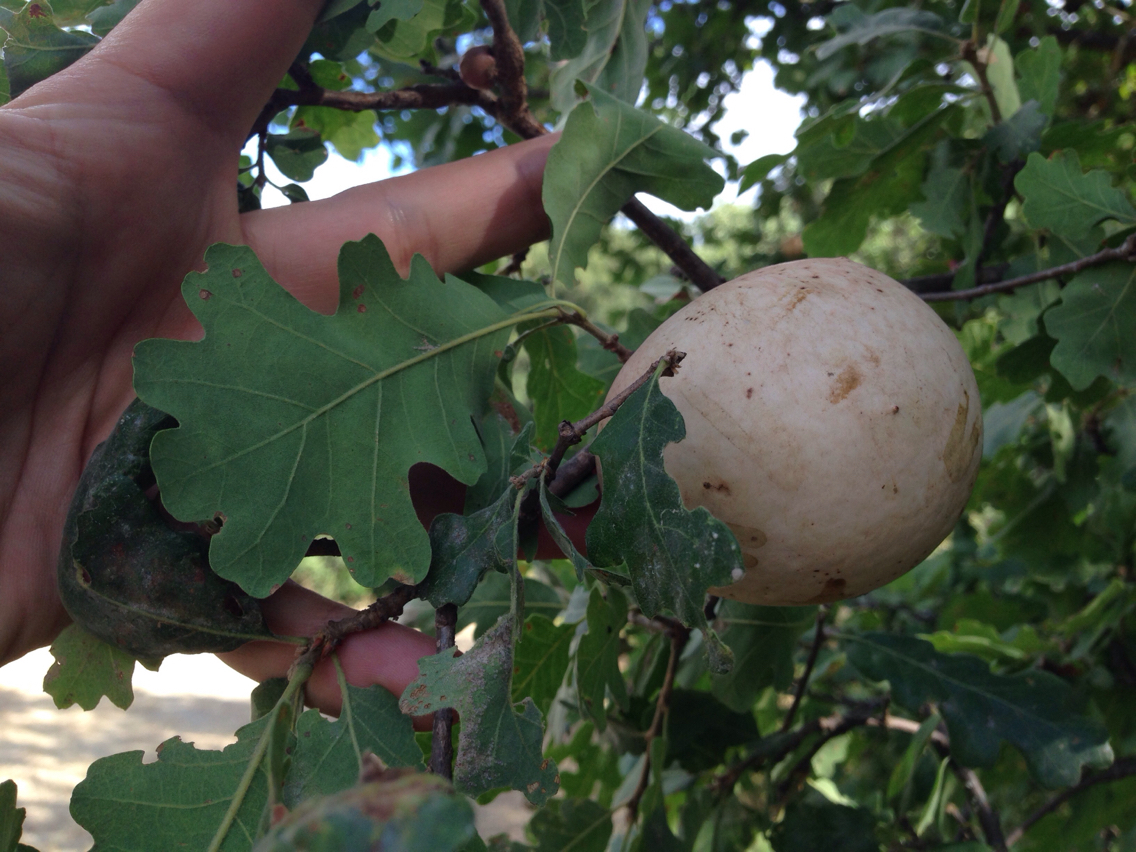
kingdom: Animalia
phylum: Arthropoda
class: Insecta
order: Hymenoptera
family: Cynipidae
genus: Andricus
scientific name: Andricus quercuscalifornicus
